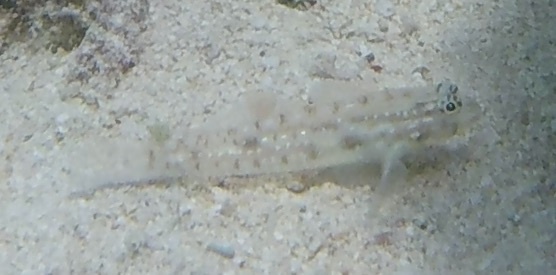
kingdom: Animalia
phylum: Chordata
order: Perciformes
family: Gobiidae
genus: Coryphopterus
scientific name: Coryphopterus glaucofraenum
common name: Bridled goby
